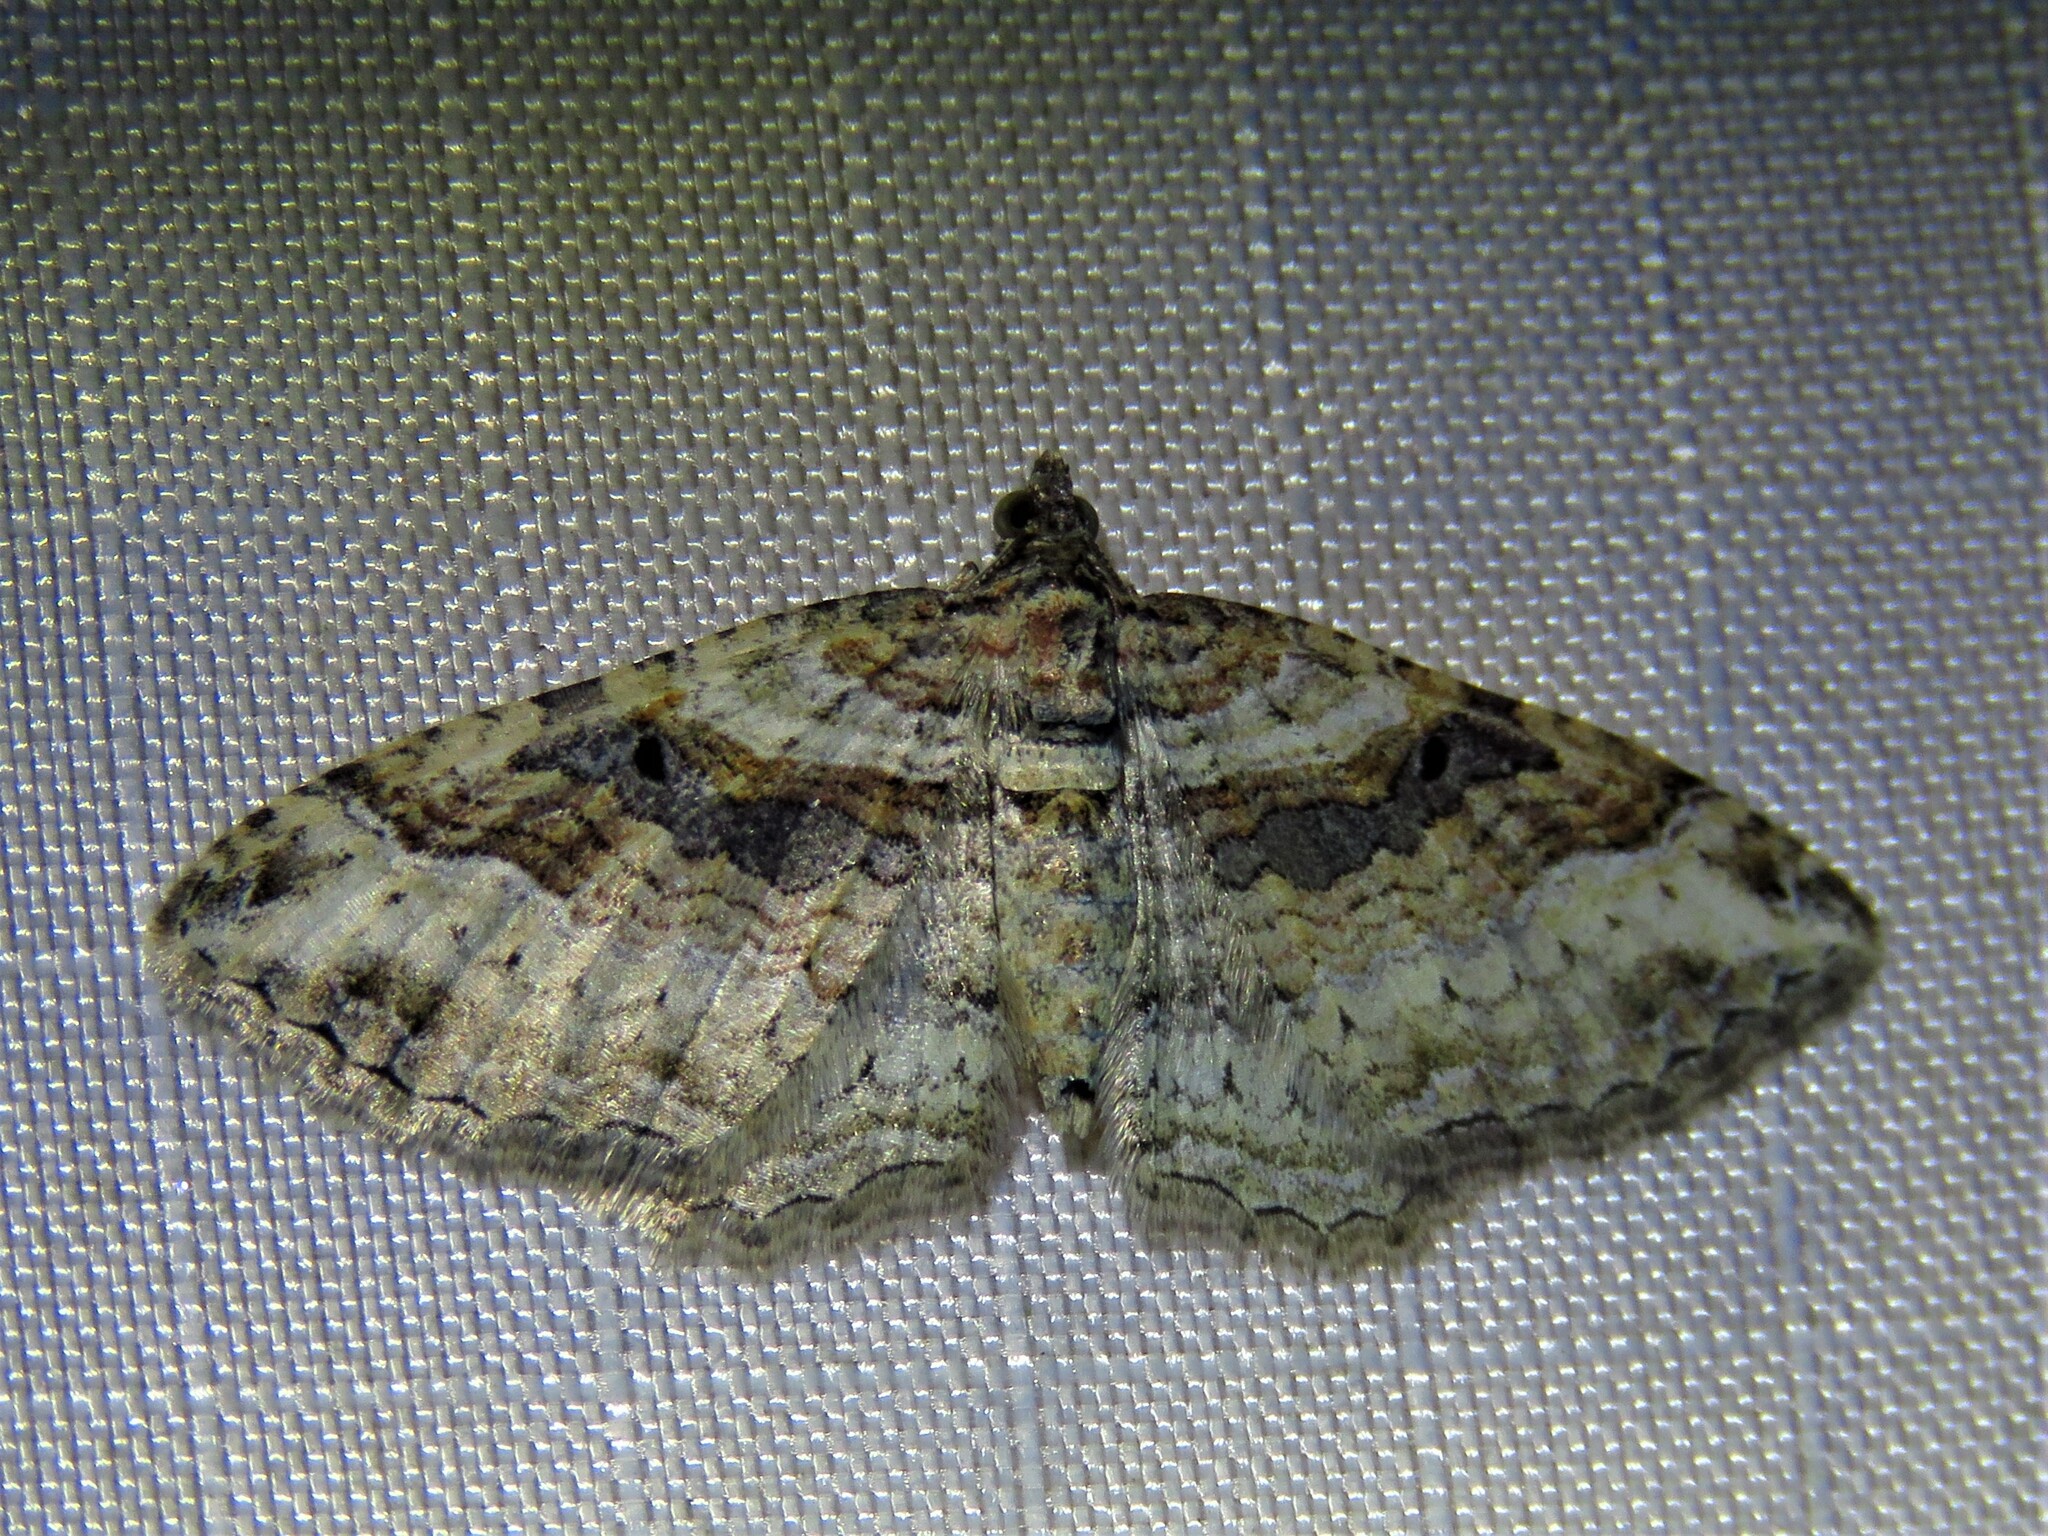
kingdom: Animalia
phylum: Arthropoda
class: Insecta
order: Lepidoptera
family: Geometridae
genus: Costaconvexa
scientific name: Costaconvexa centrostrigaria
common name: Bent-line carpet
